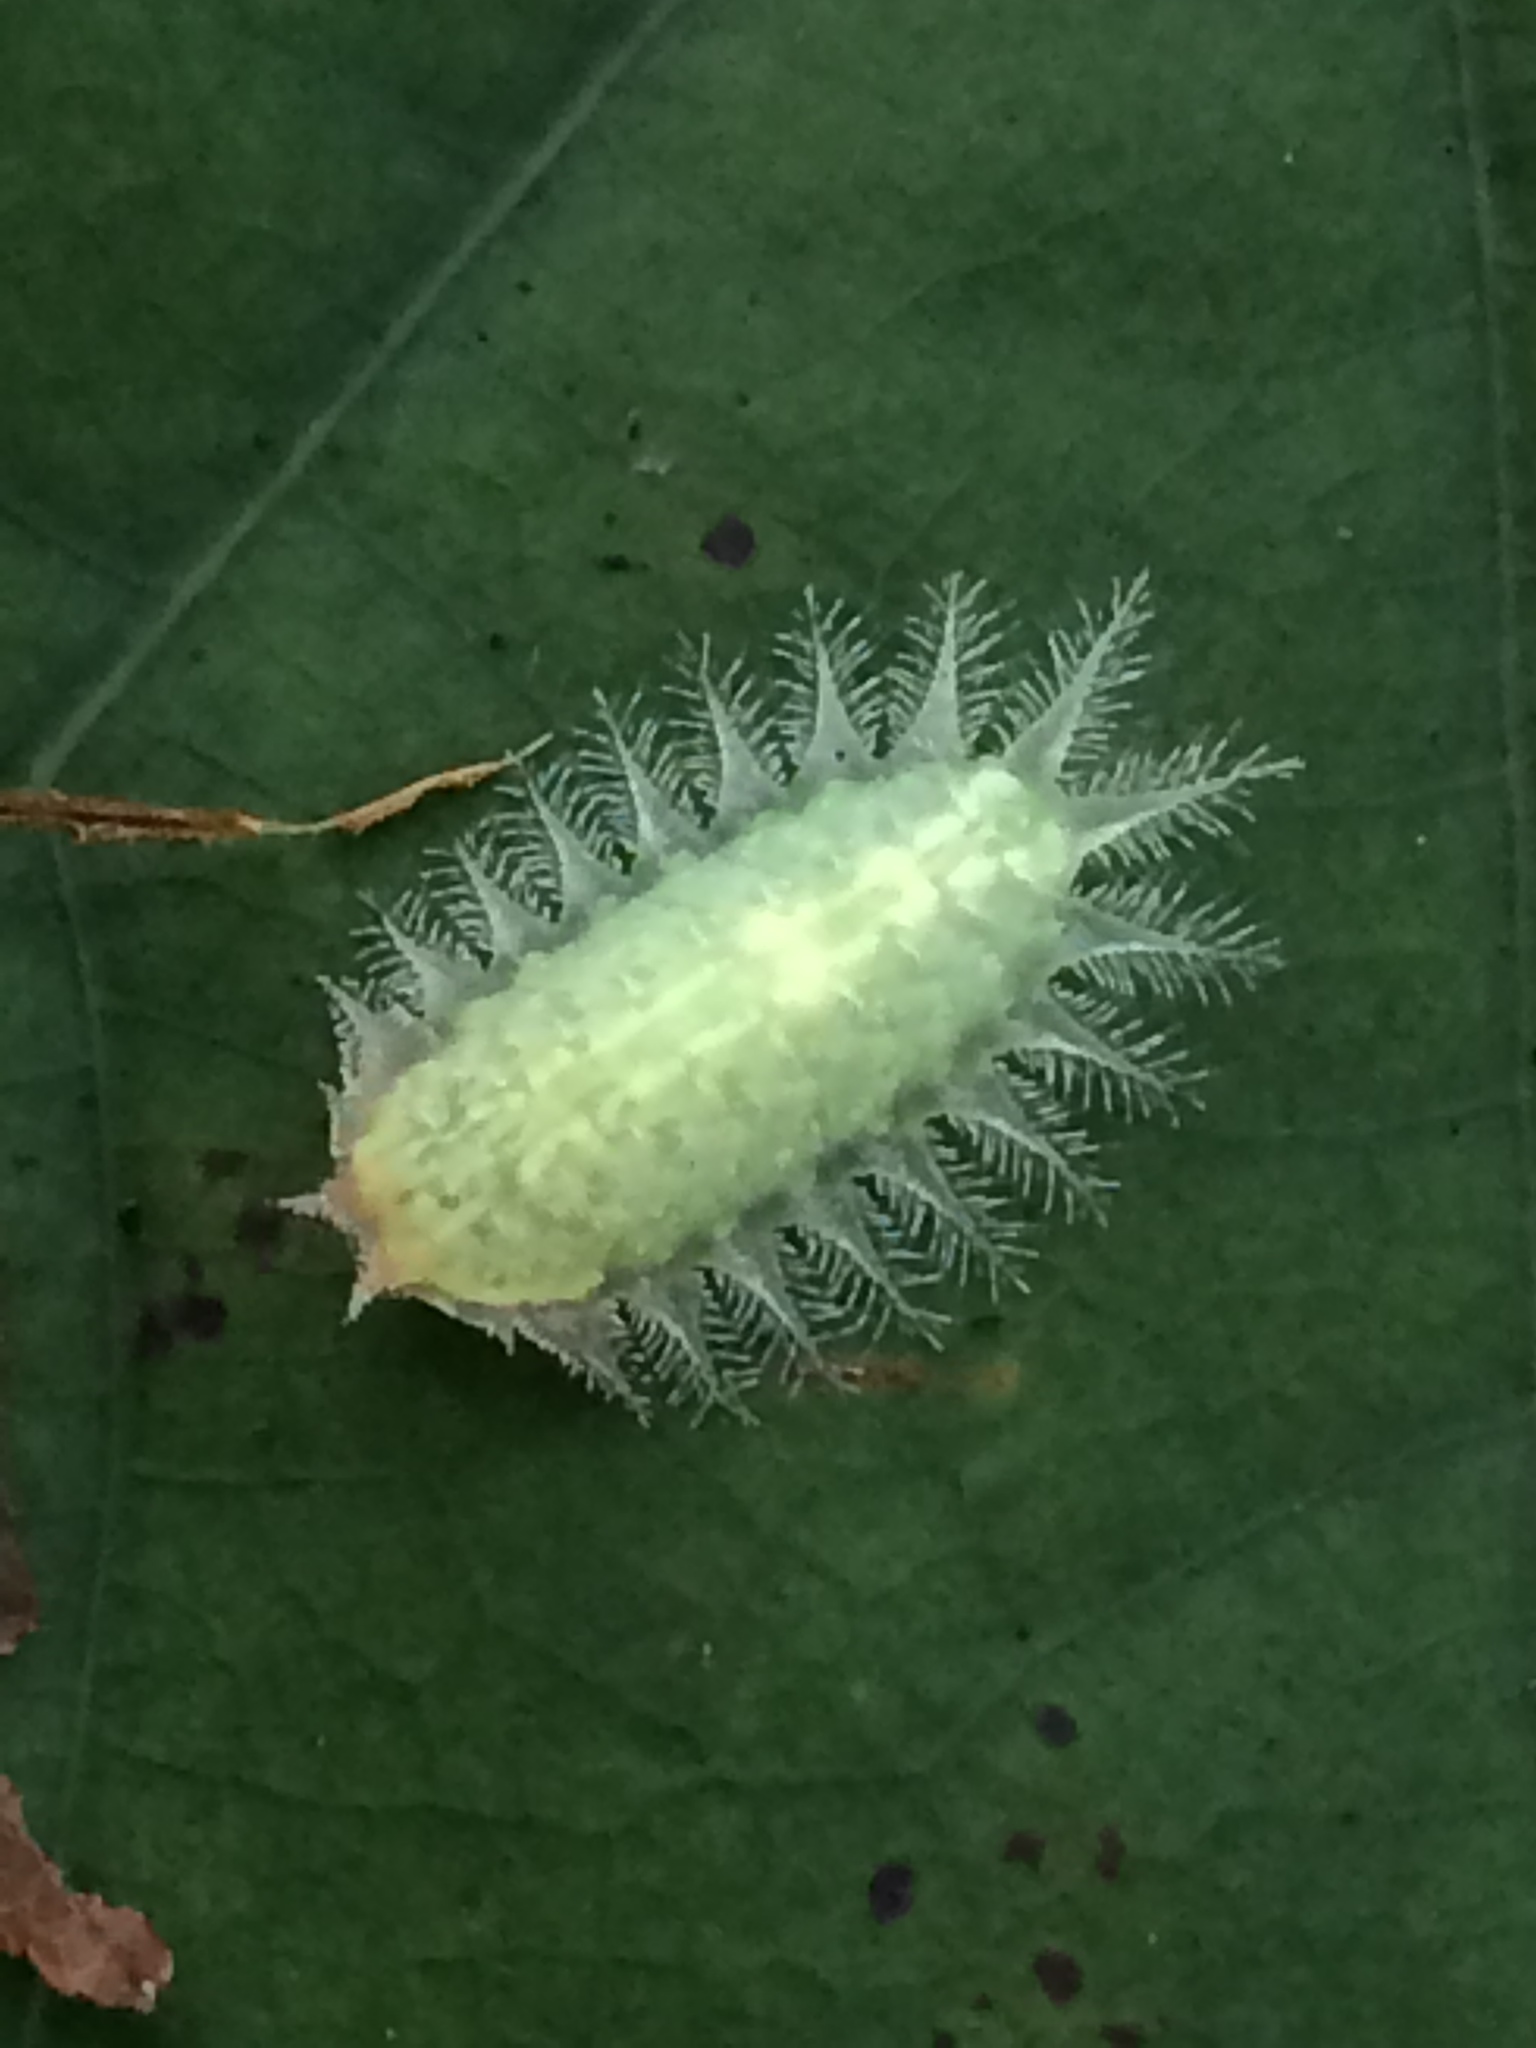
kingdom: Animalia
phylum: Arthropoda
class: Insecta
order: Lepidoptera
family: Limacodidae
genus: Isa
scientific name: Isa textula
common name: Crowned slug moth
